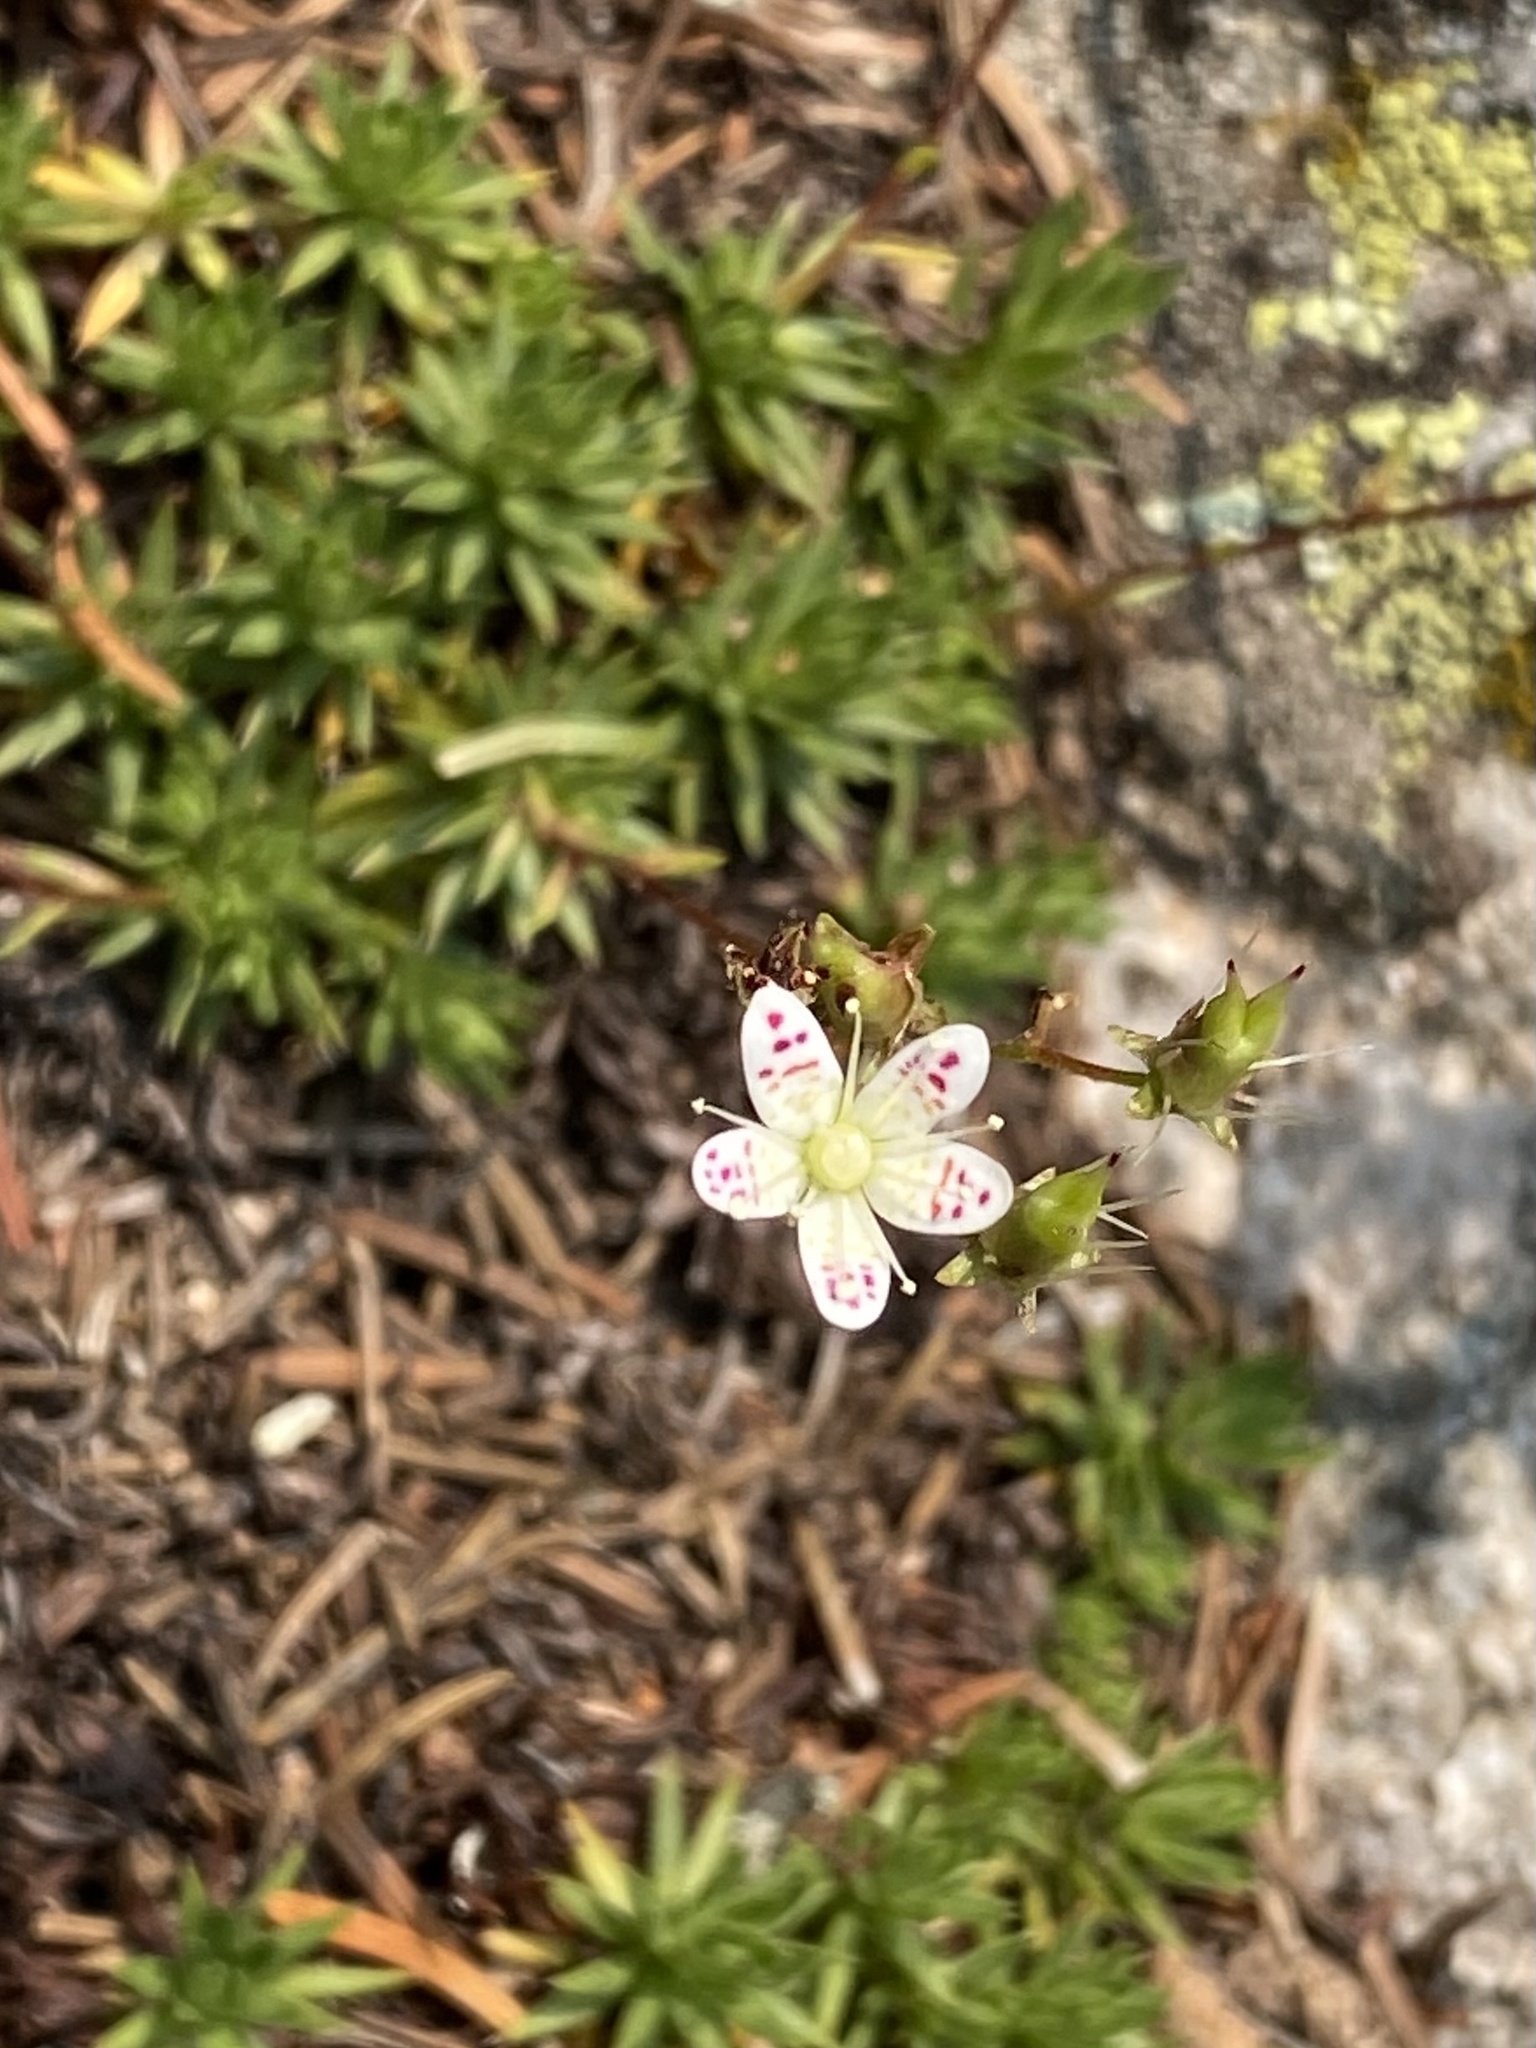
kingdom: Plantae
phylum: Tracheophyta
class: Magnoliopsida
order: Saxifragales
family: Saxifragaceae
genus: Saxifraga
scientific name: Saxifraga bronchialis
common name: Matted saxifrage
